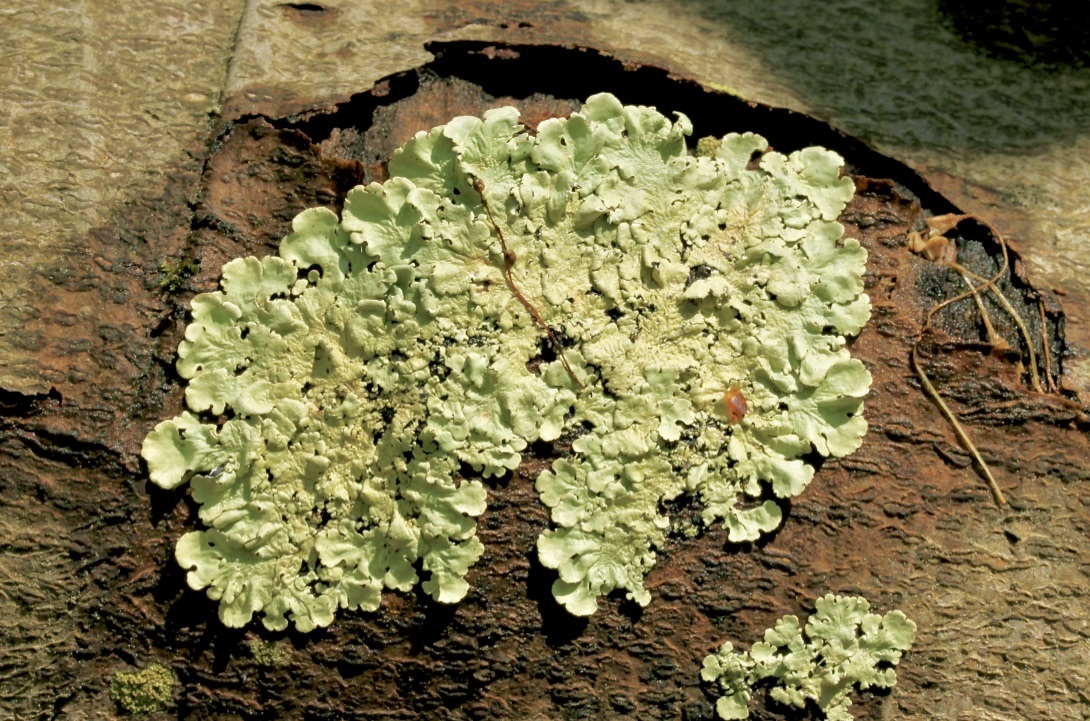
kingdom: Fungi
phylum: Ascomycota
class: Lecanoromycetes
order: Lecanorales
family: Parmeliaceae
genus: Flavoparmelia
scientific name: Flavoparmelia caperata
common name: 40-mile per hour lichen
